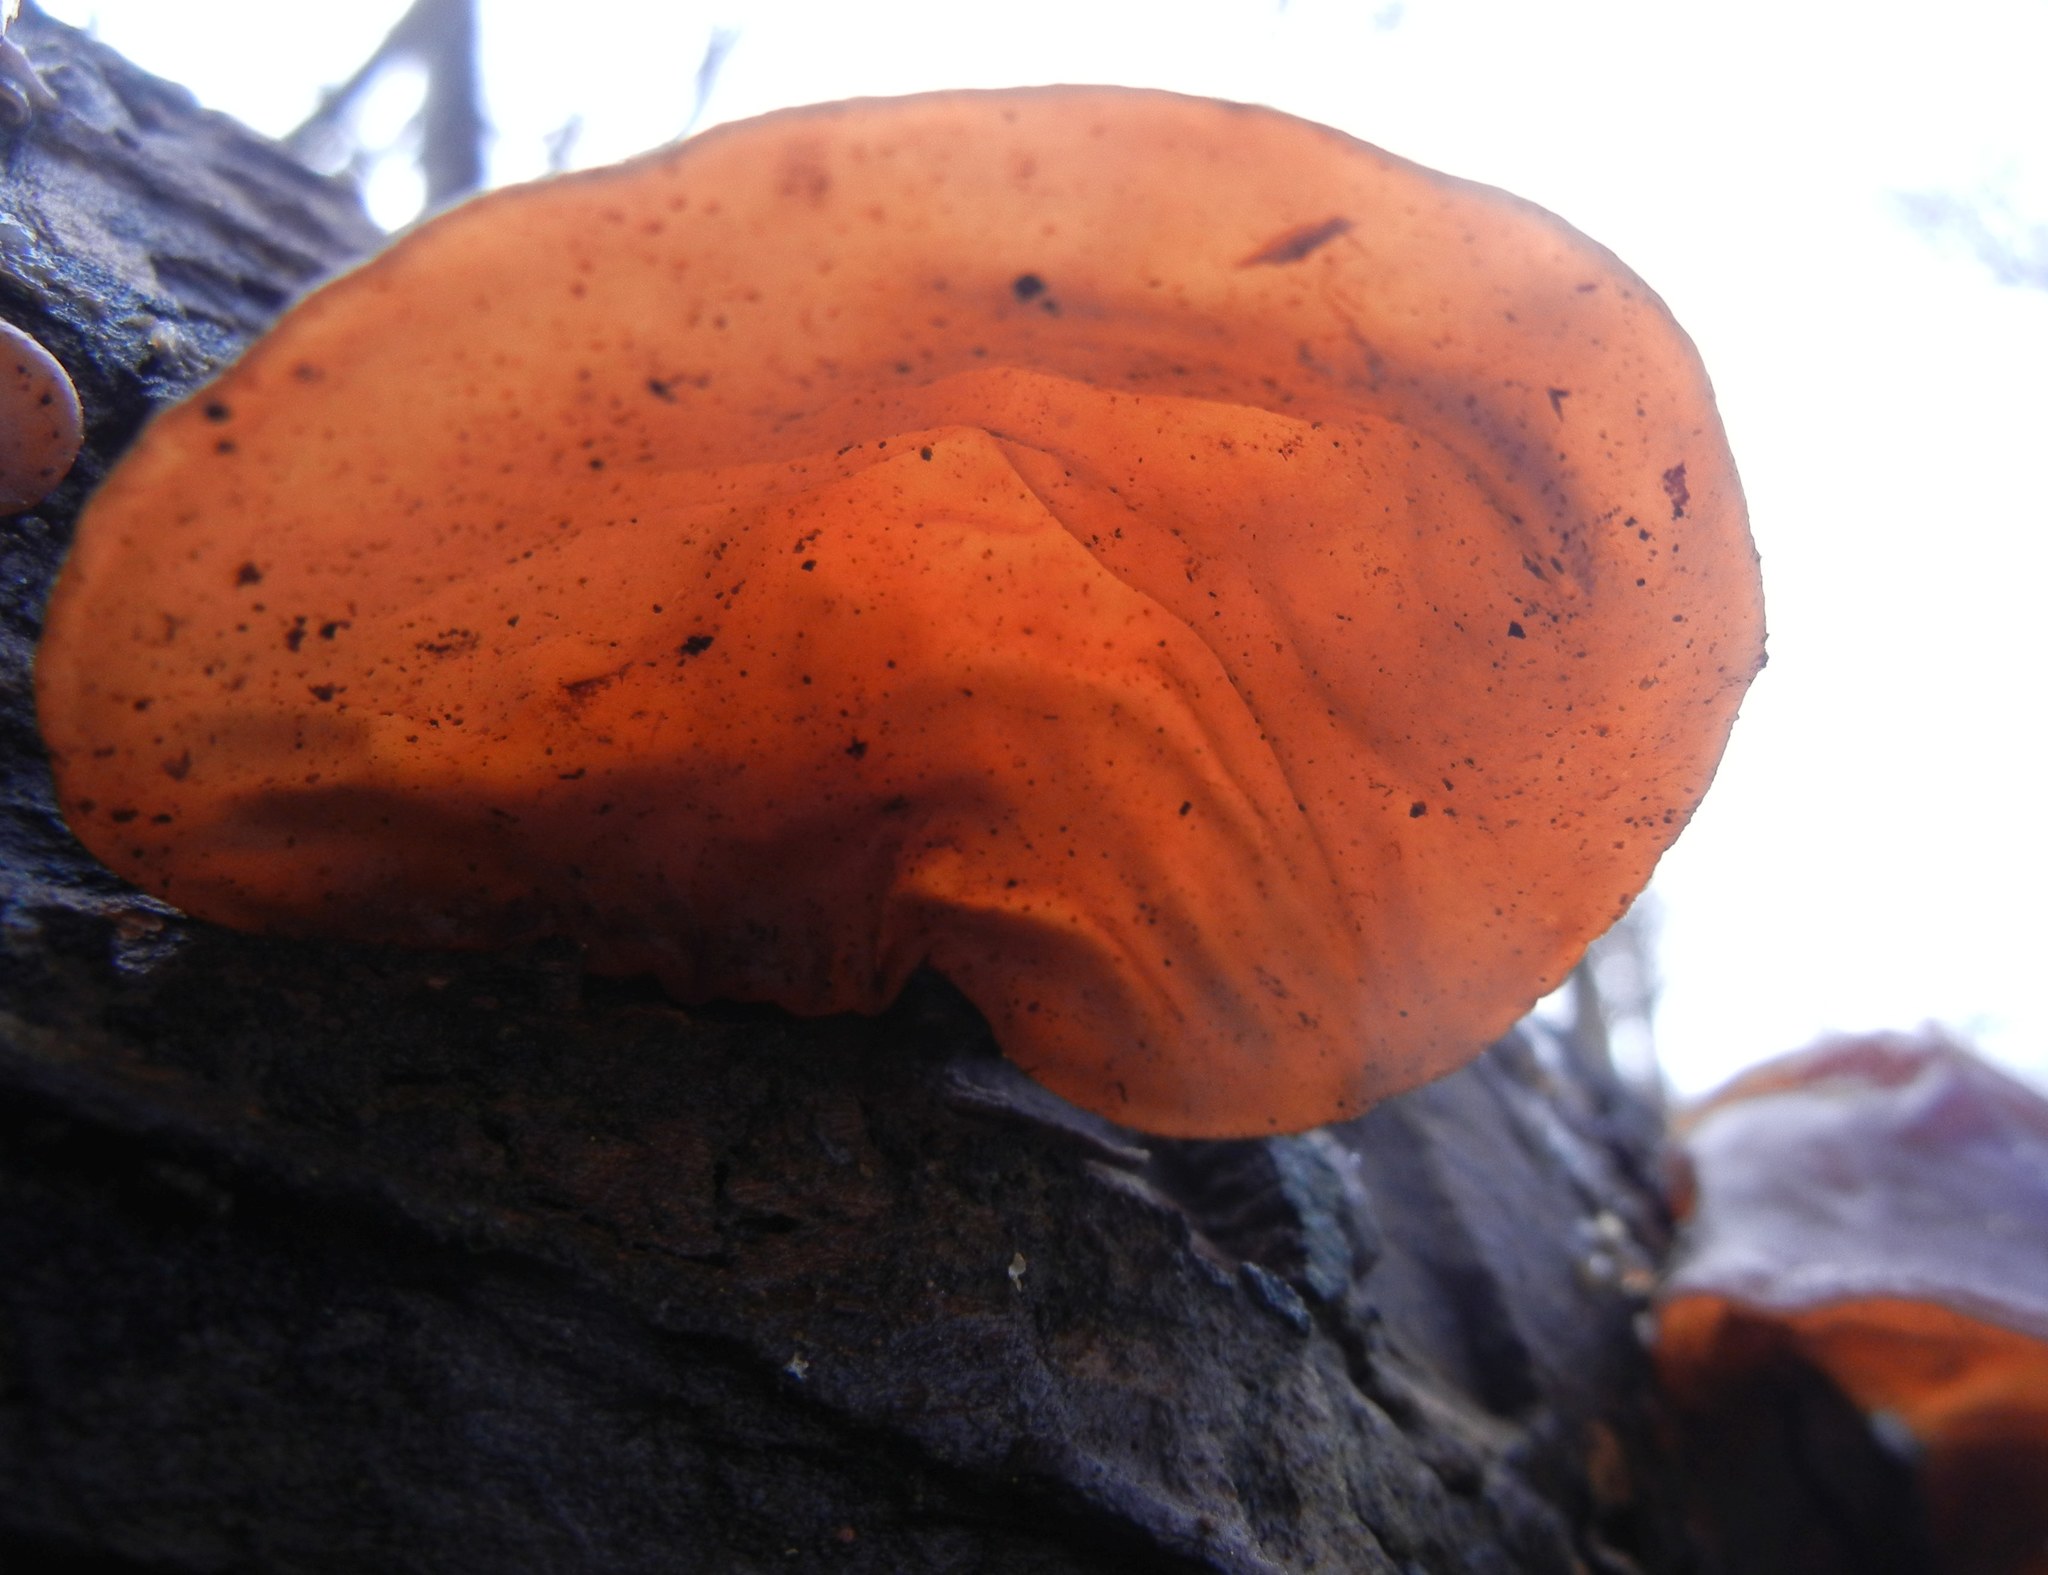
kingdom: Fungi
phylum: Basidiomycota
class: Agaricomycetes
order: Auriculariales
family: Auriculariaceae
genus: Auricularia
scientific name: Auricularia auricula-judae
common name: Jelly ear
